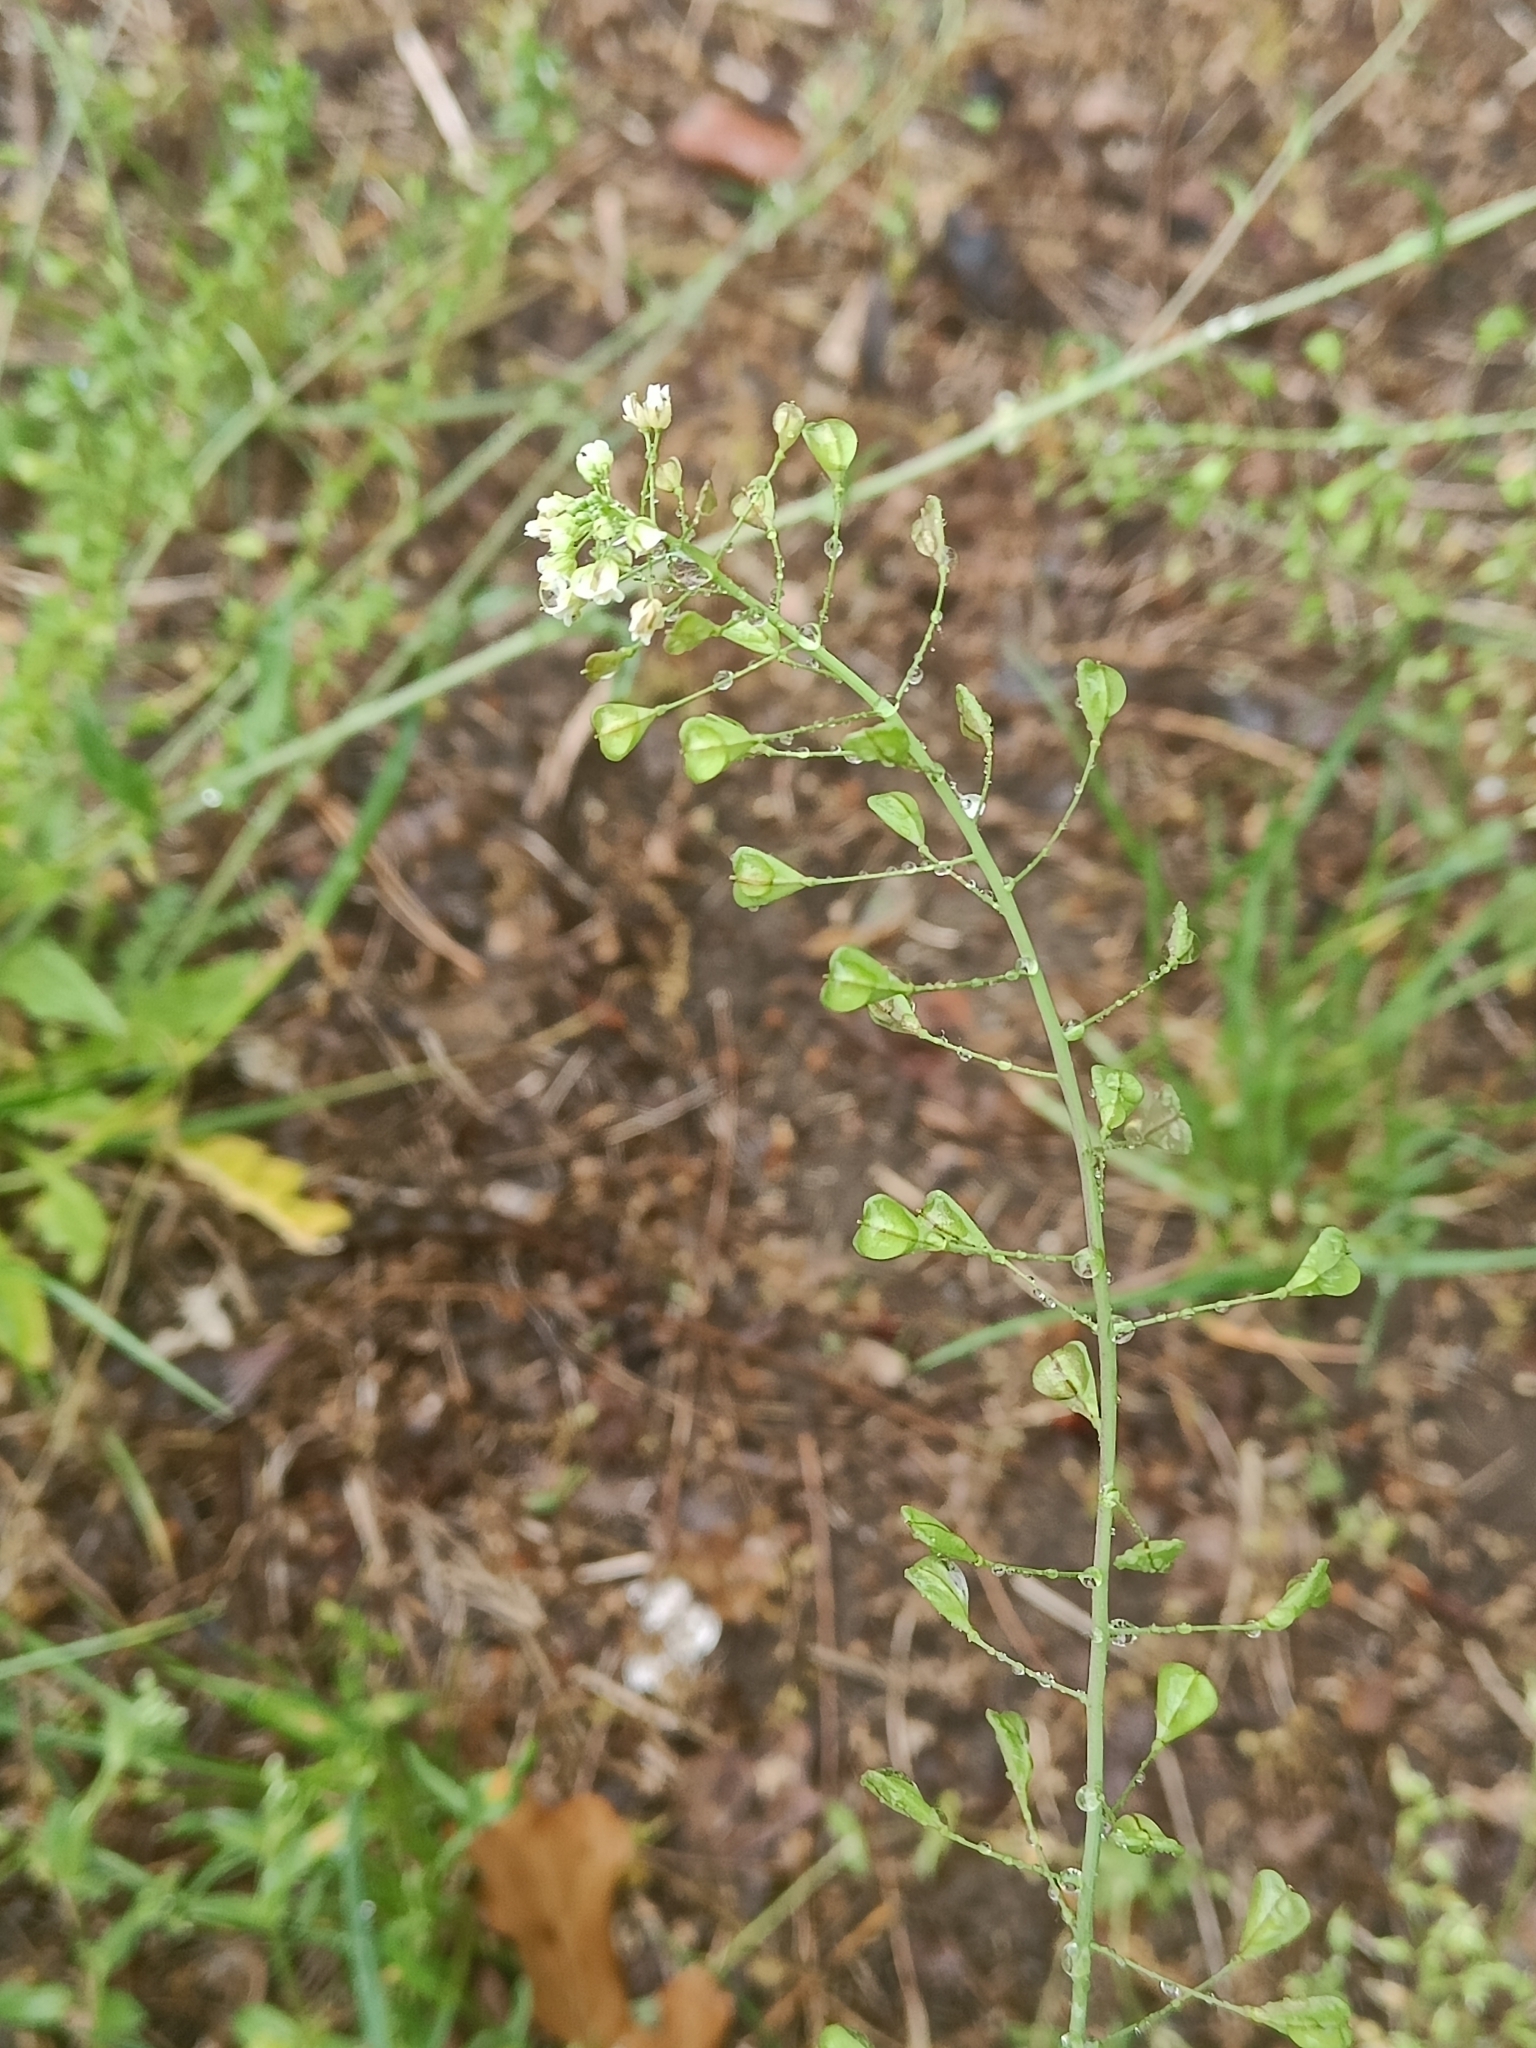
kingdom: Plantae
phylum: Tracheophyta
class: Magnoliopsida
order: Brassicales
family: Brassicaceae
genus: Capsella
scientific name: Capsella bursa-pastoris
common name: Shepherd's purse
